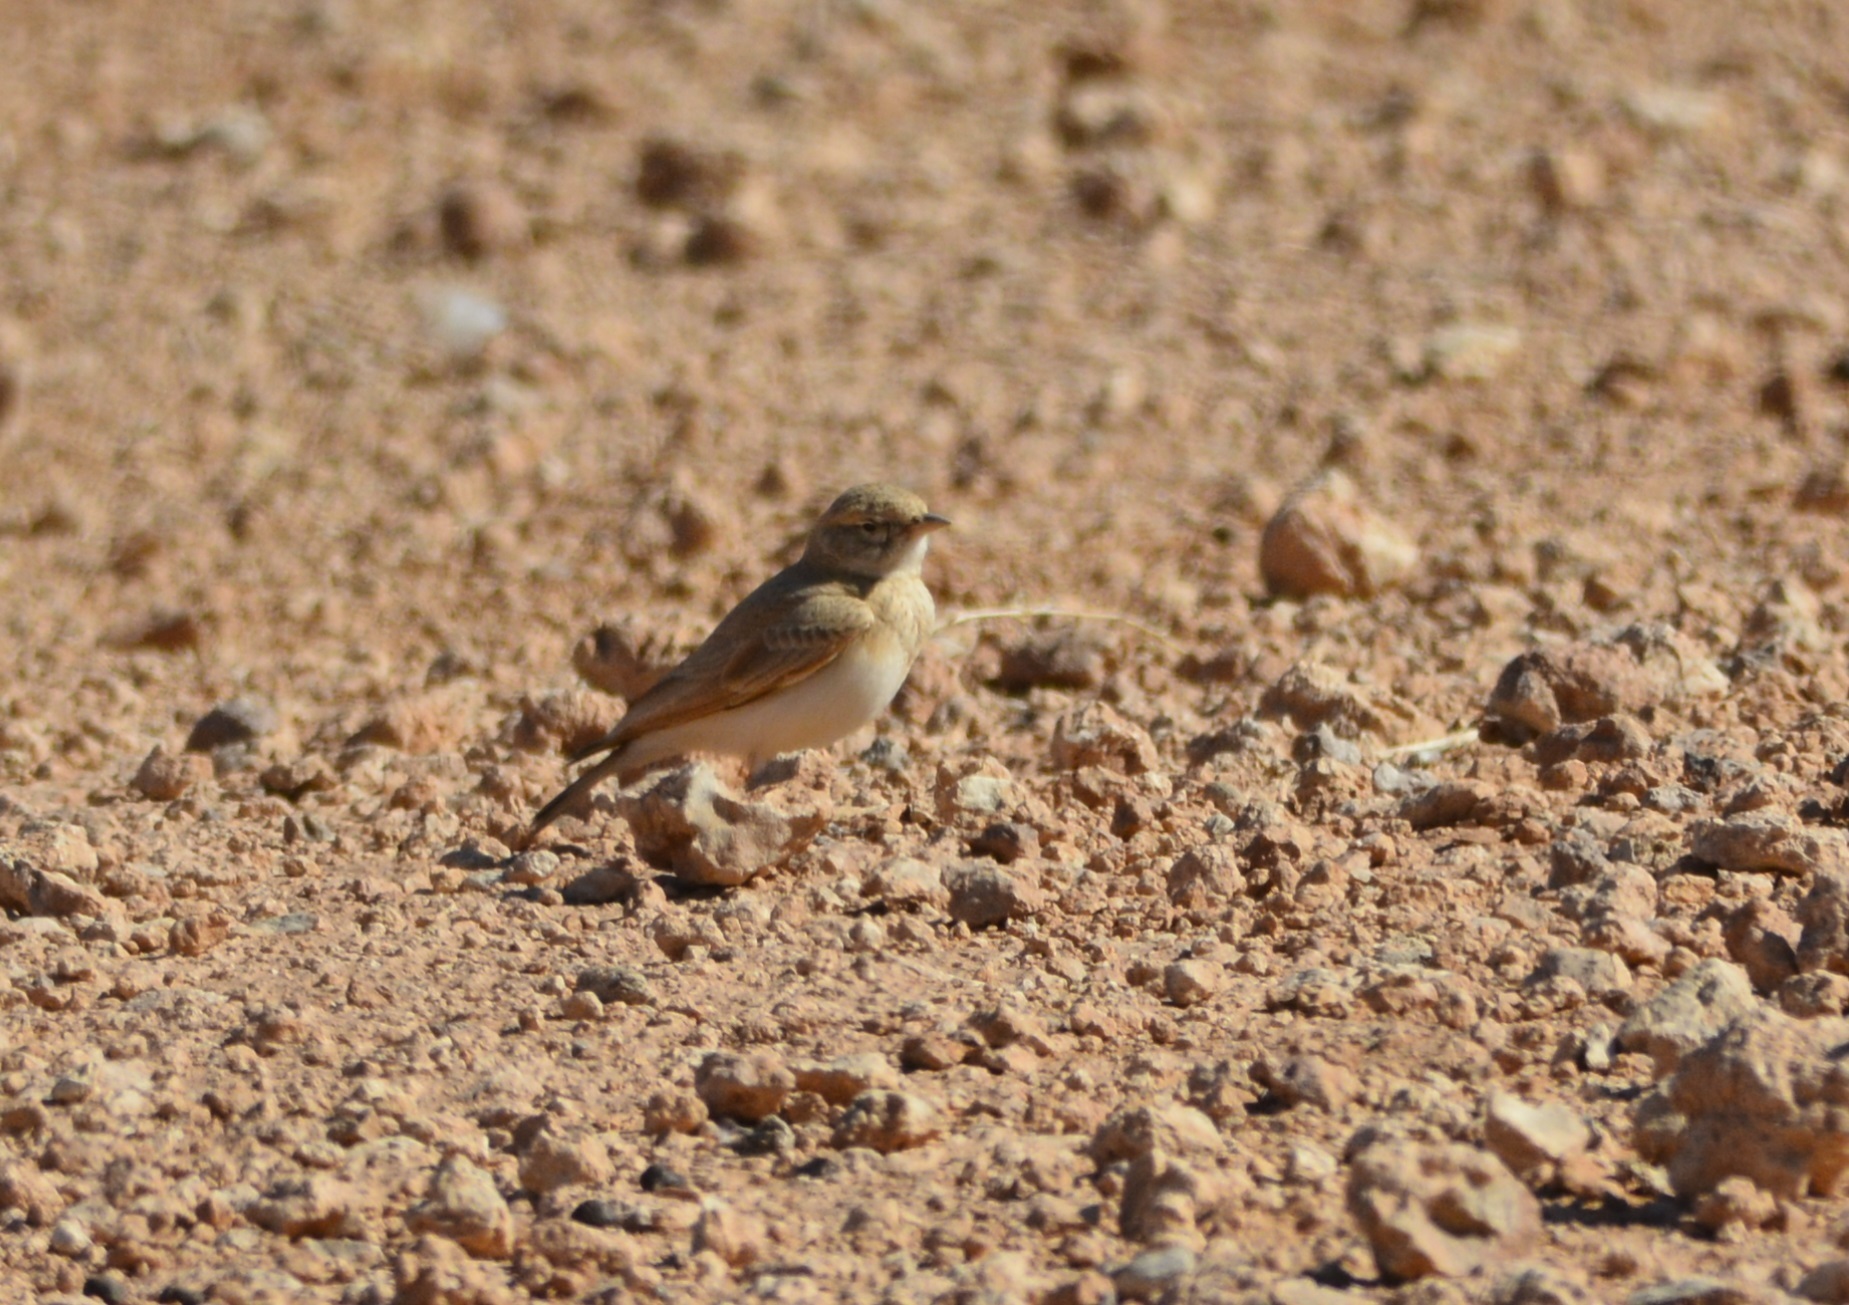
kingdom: Animalia
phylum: Chordata
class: Aves
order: Passeriformes
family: Alaudidae
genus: Ammomanes
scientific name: Ammomanes cinctura
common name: Bar-tailed lark
